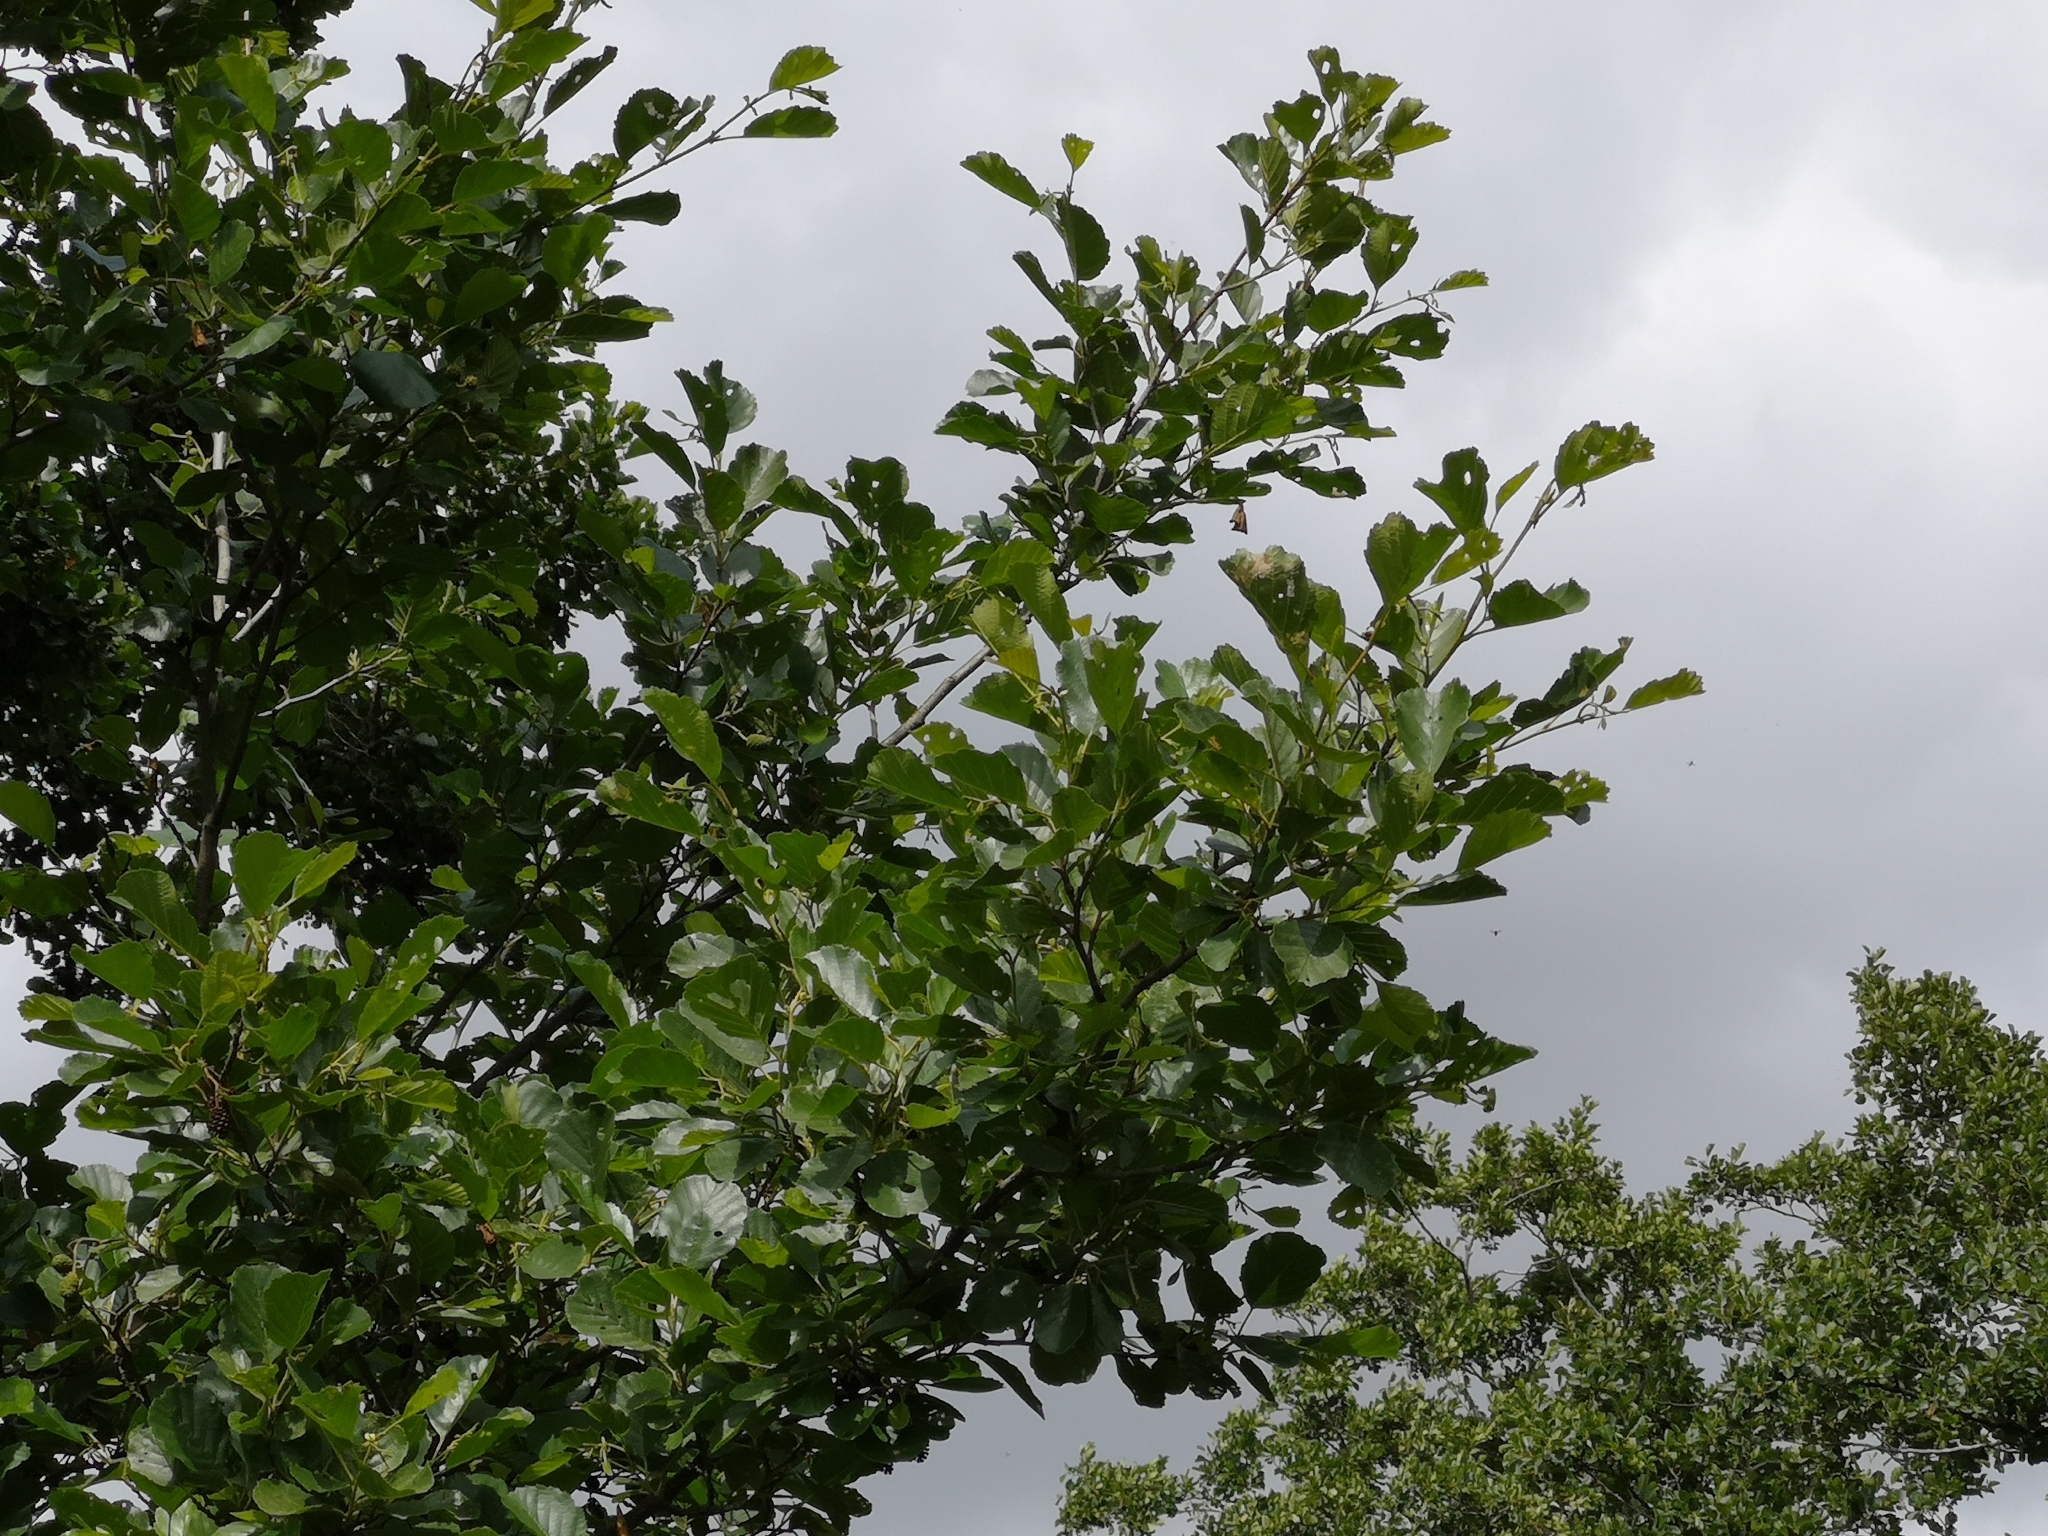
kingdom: Plantae
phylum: Tracheophyta
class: Magnoliopsida
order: Fagales
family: Betulaceae
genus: Alnus
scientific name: Alnus glutinosa
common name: Black alder
